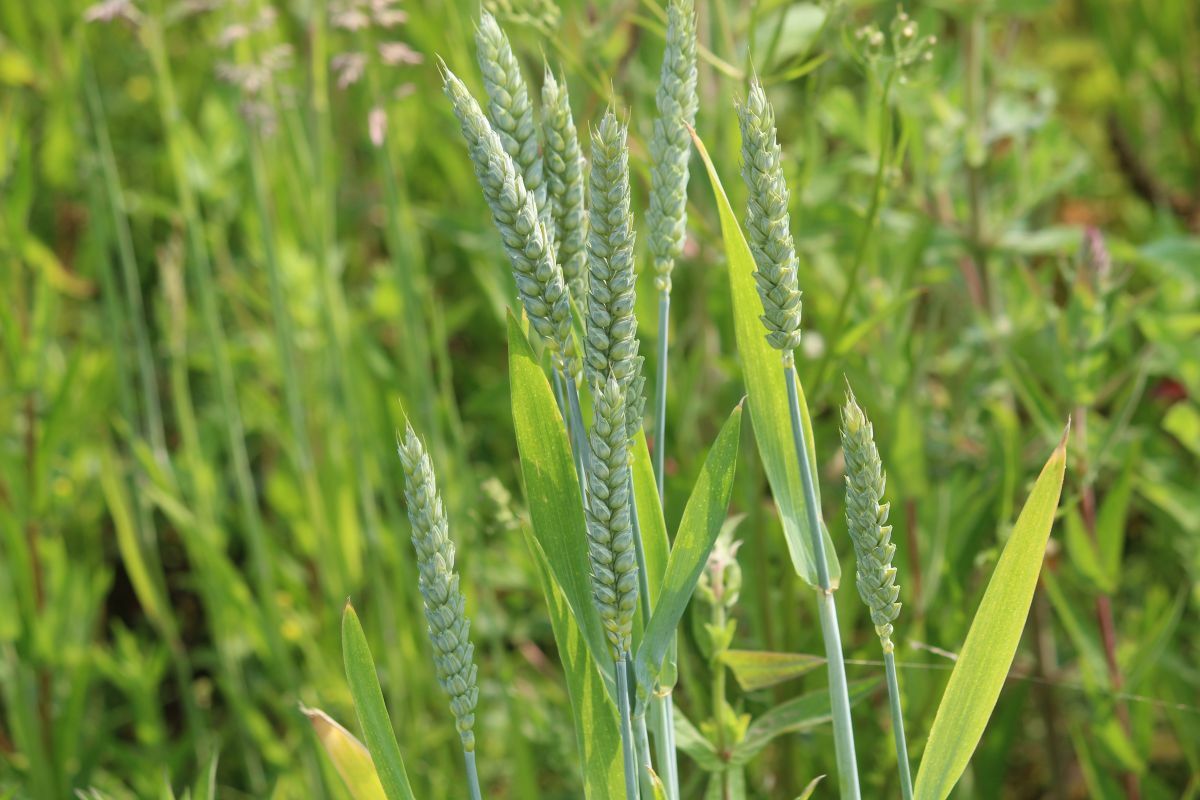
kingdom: Plantae
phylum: Tracheophyta
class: Liliopsida
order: Poales
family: Poaceae
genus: Triticum
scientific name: Triticum aestivum
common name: Common wheat
